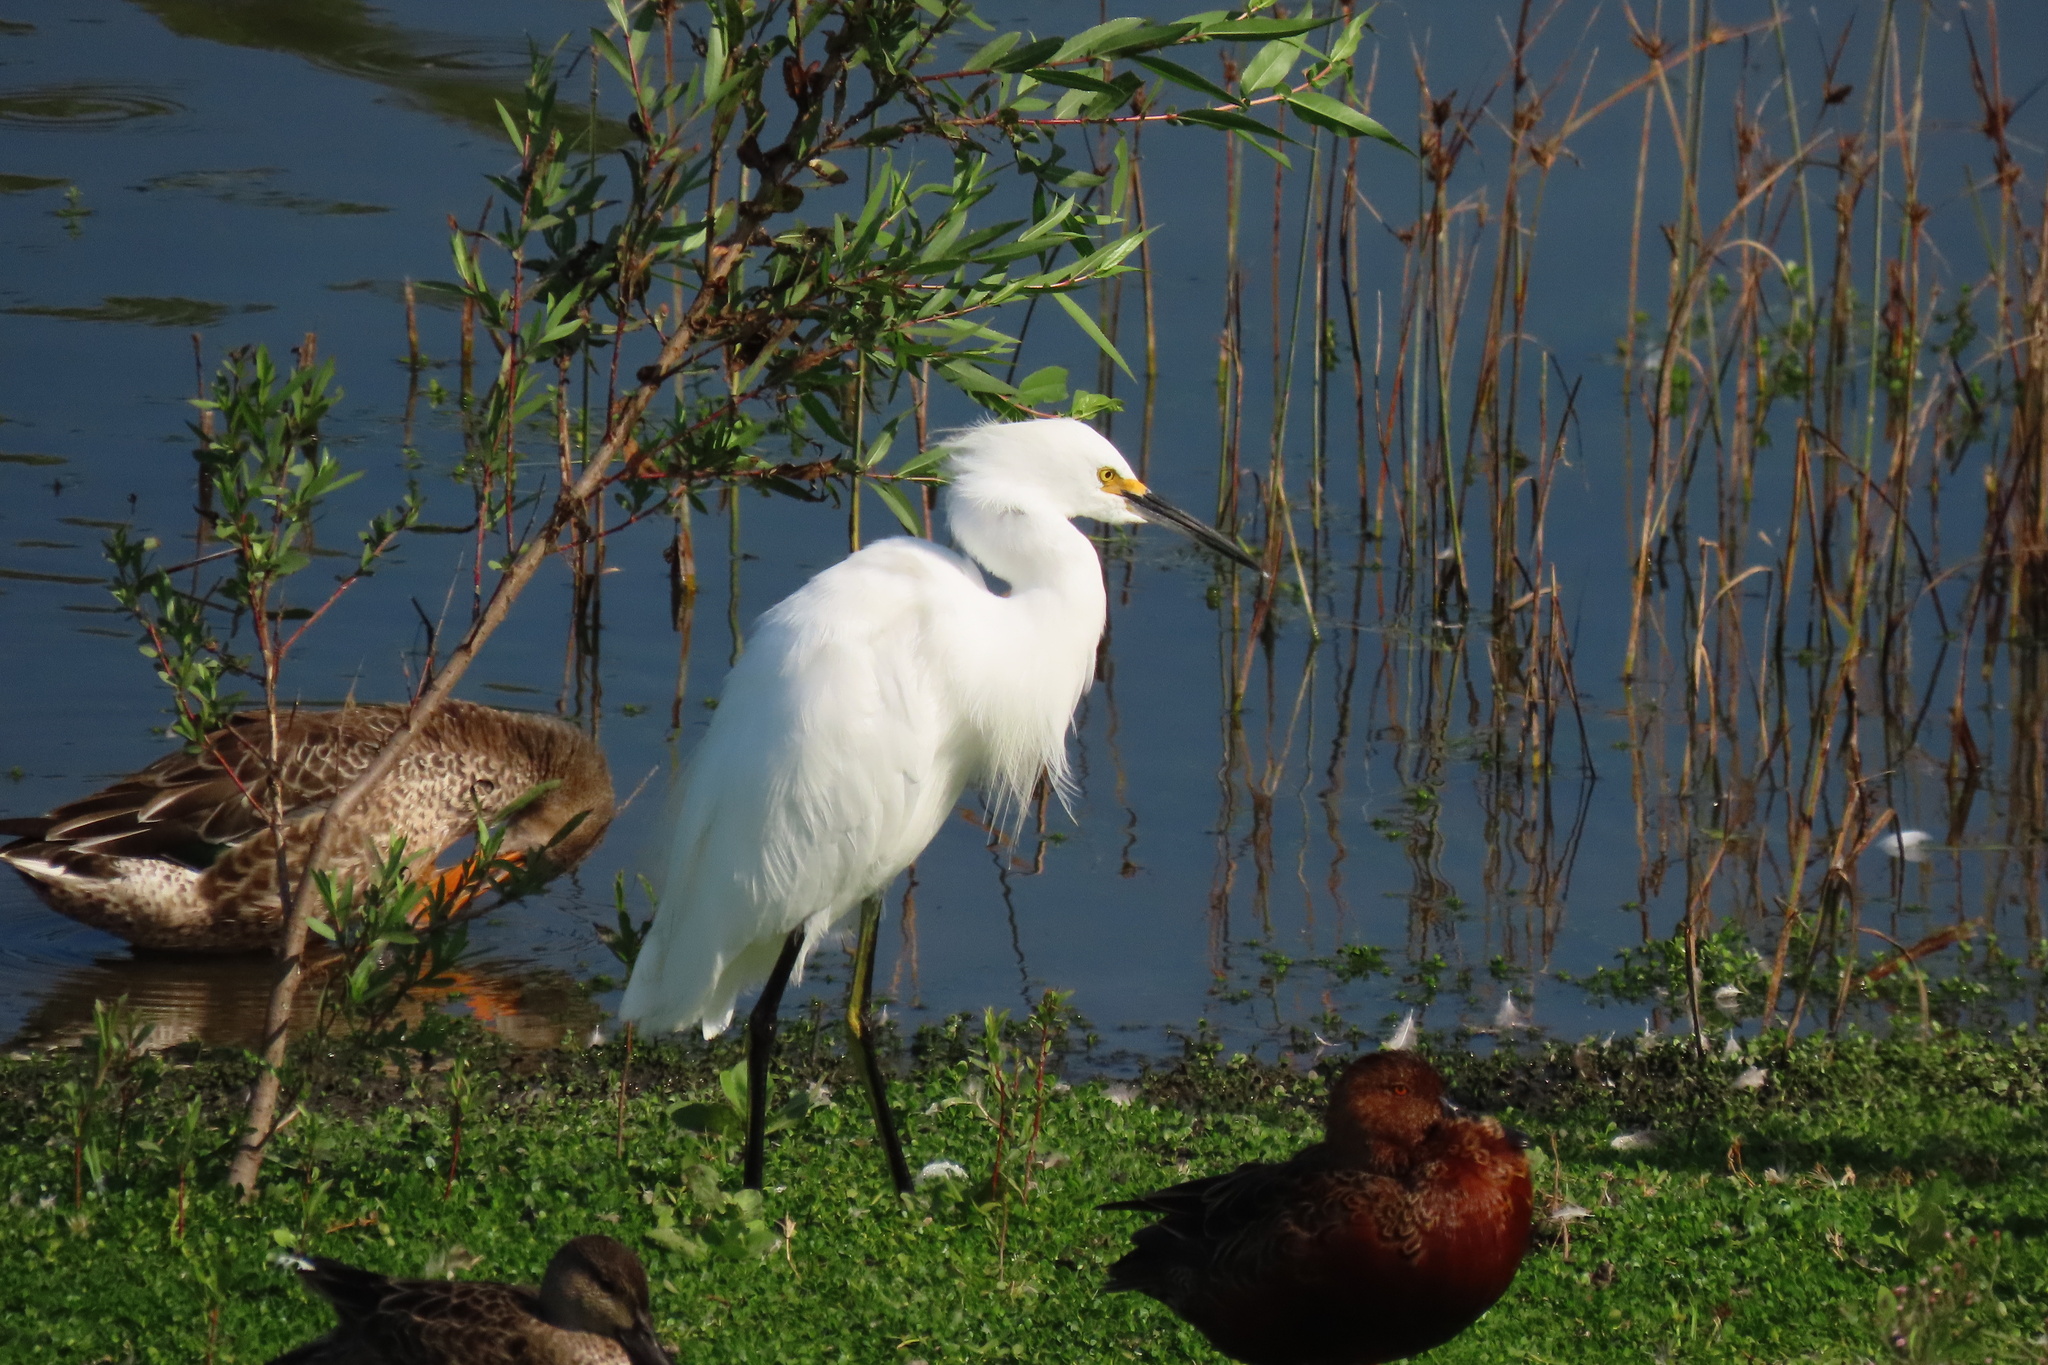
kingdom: Animalia
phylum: Chordata
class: Aves
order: Pelecaniformes
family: Ardeidae
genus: Egretta
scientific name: Egretta thula
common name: Snowy egret
